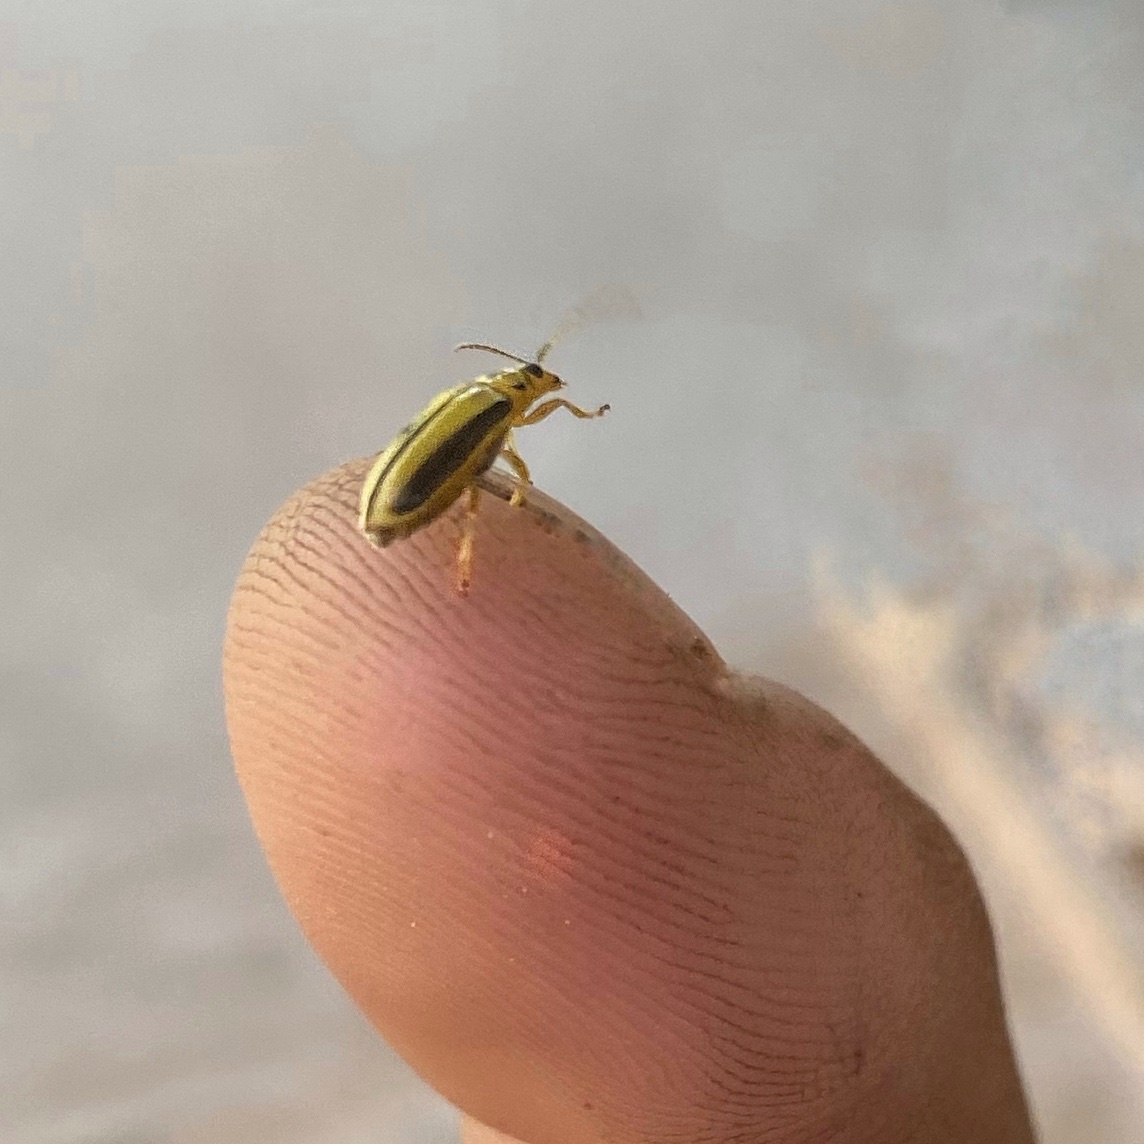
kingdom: Animalia
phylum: Arthropoda
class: Insecta
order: Coleoptera
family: Chrysomelidae
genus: Xanthogaleruca
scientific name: Xanthogaleruca luteola
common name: Elm leaf beetle
